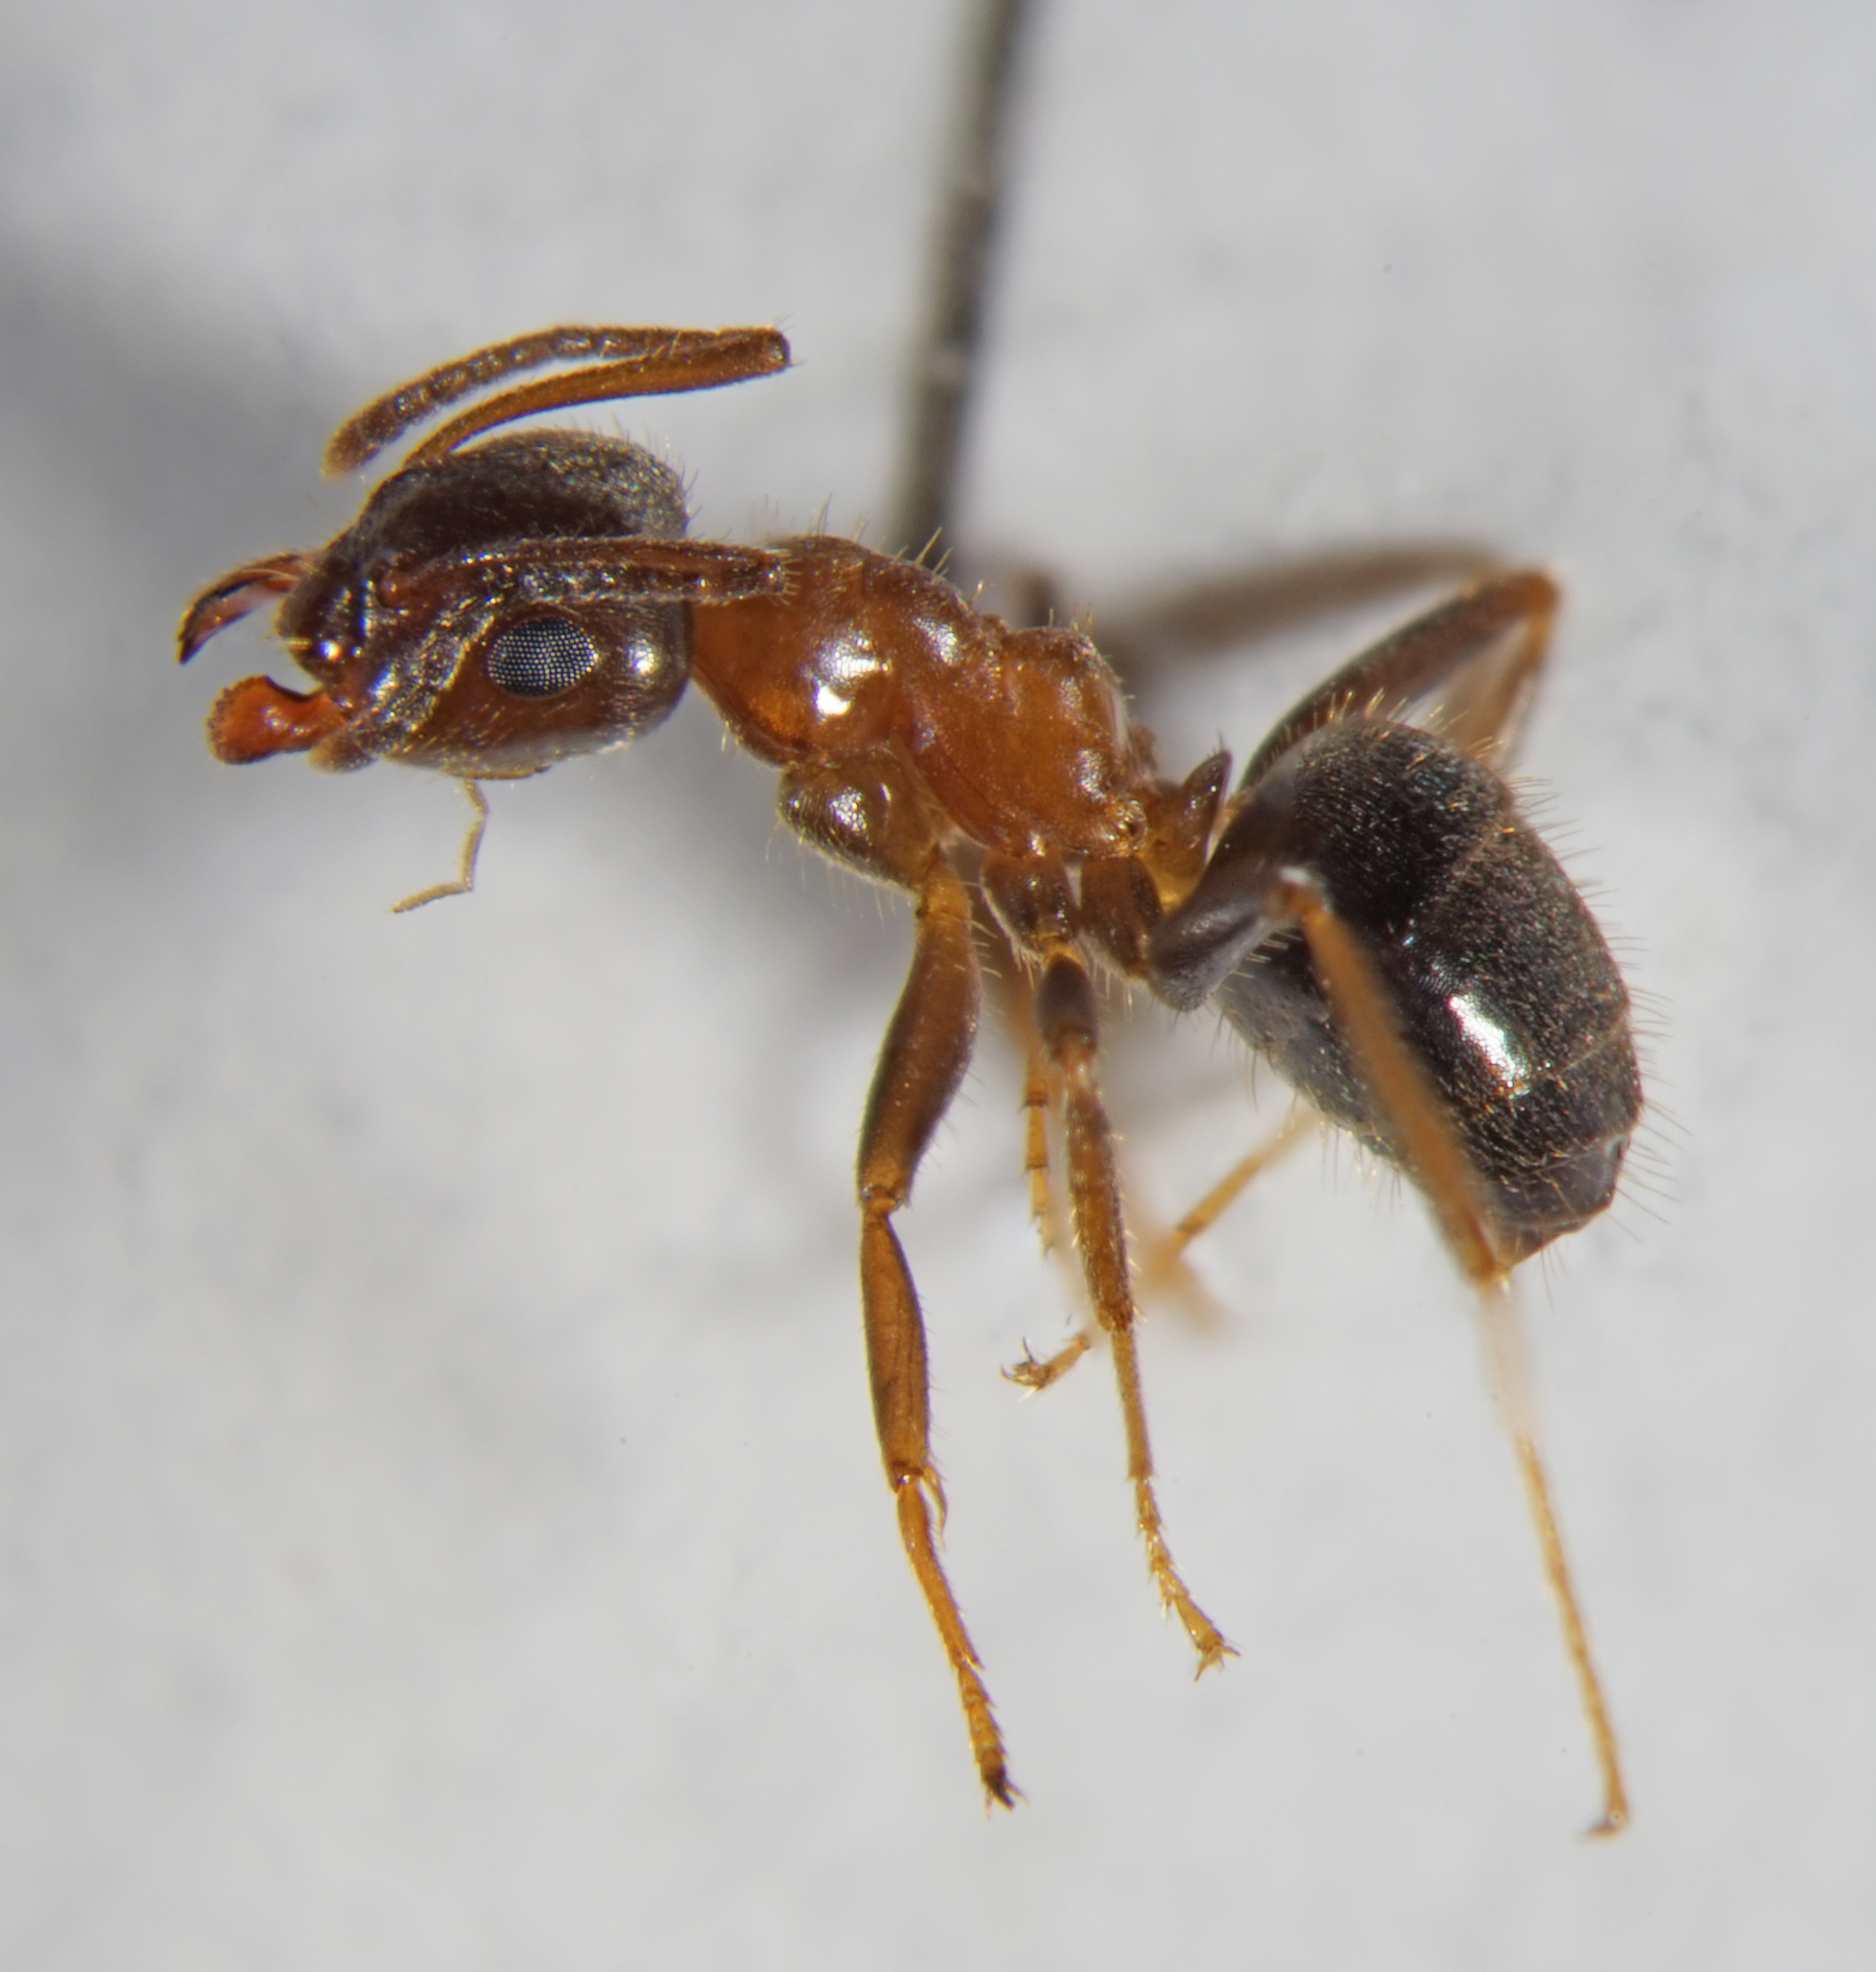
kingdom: Animalia
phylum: Arthropoda
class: Insecta
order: Hymenoptera
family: Formicidae
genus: Lasius
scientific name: Lasius emarginatus
